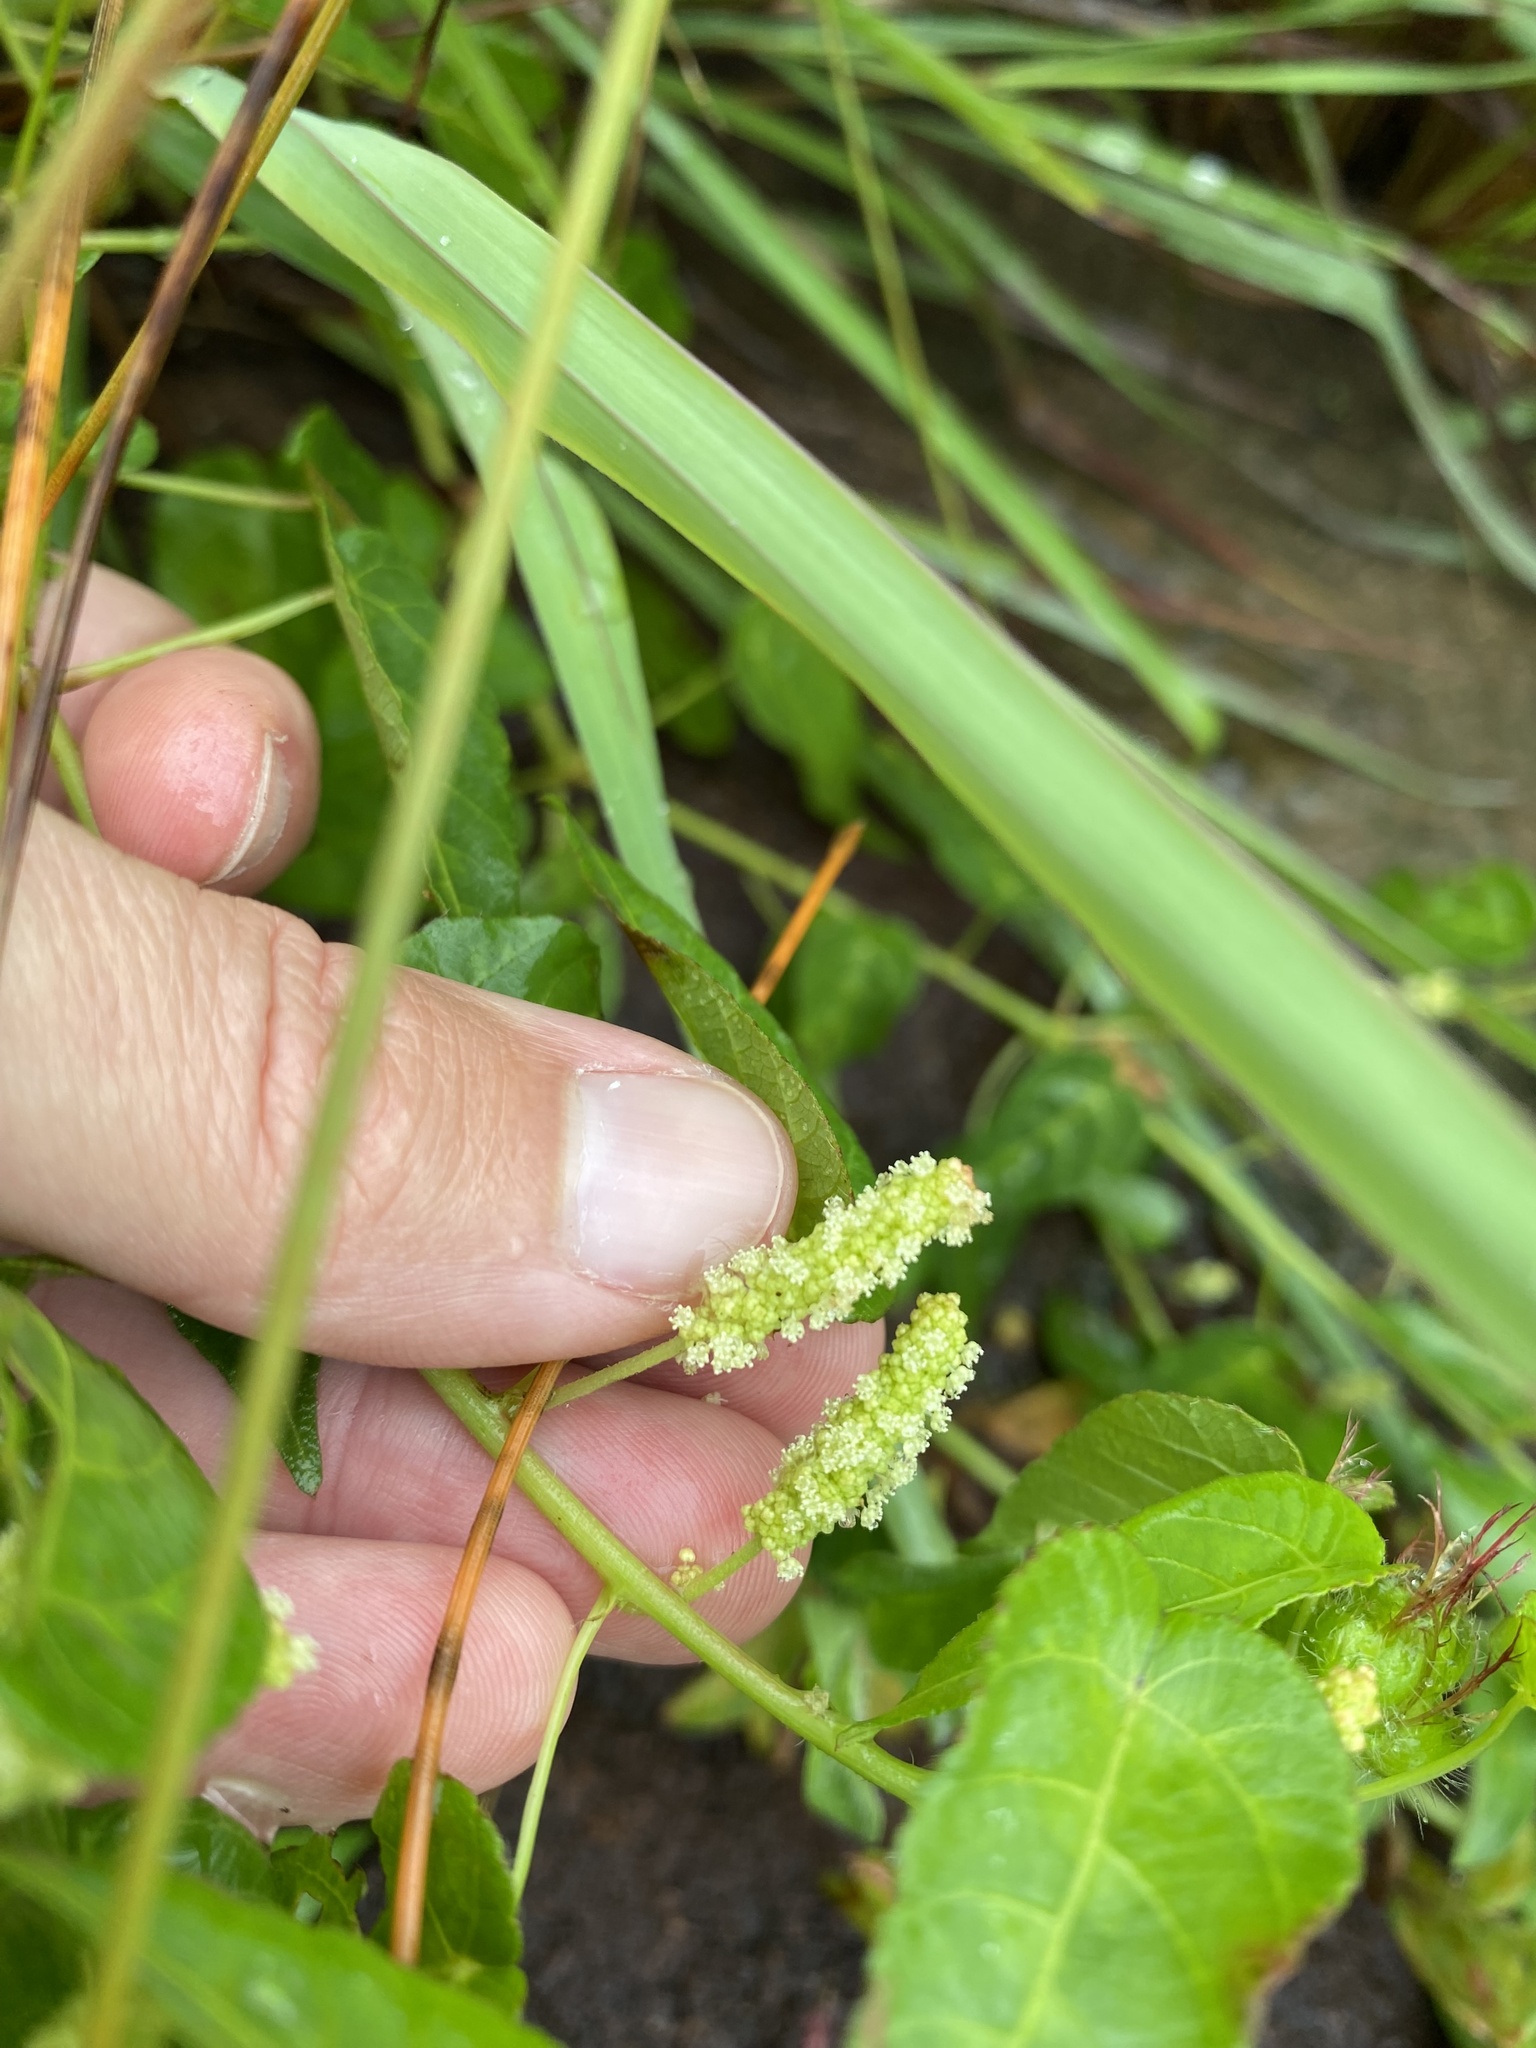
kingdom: Plantae
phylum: Tracheophyta
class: Magnoliopsida
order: Malpighiales
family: Euphorbiaceae
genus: Acalypha
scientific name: Acalypha petiolaris
